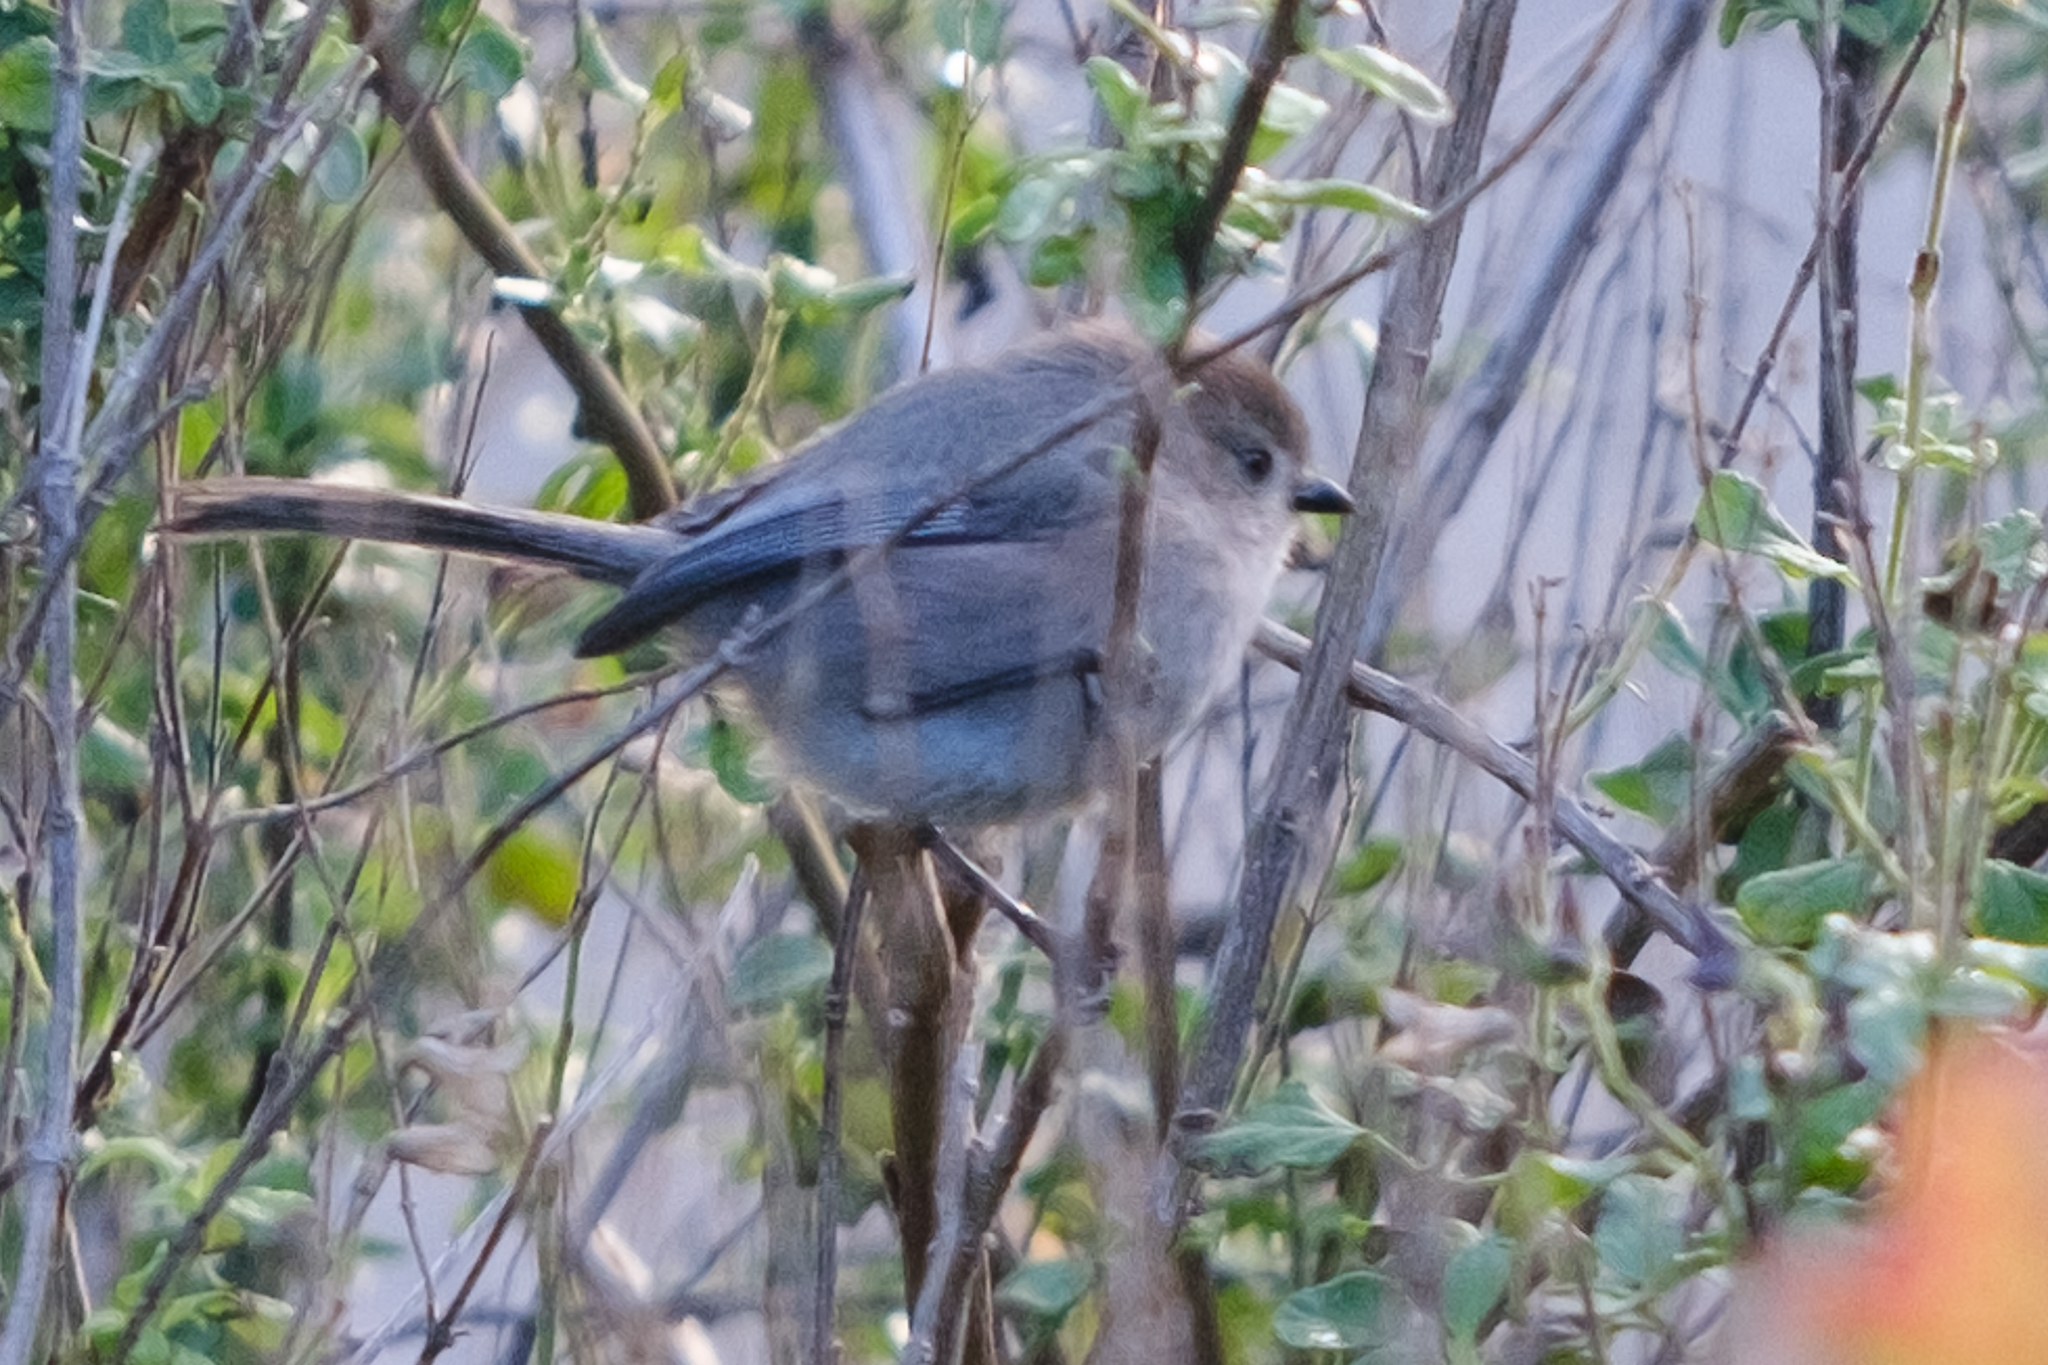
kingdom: Animalia
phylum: Chordata
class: Aves
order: Passeriformes
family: Aegithalidae
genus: Psaltriparus
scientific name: Psaltriparus minimus
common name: American bushtit
